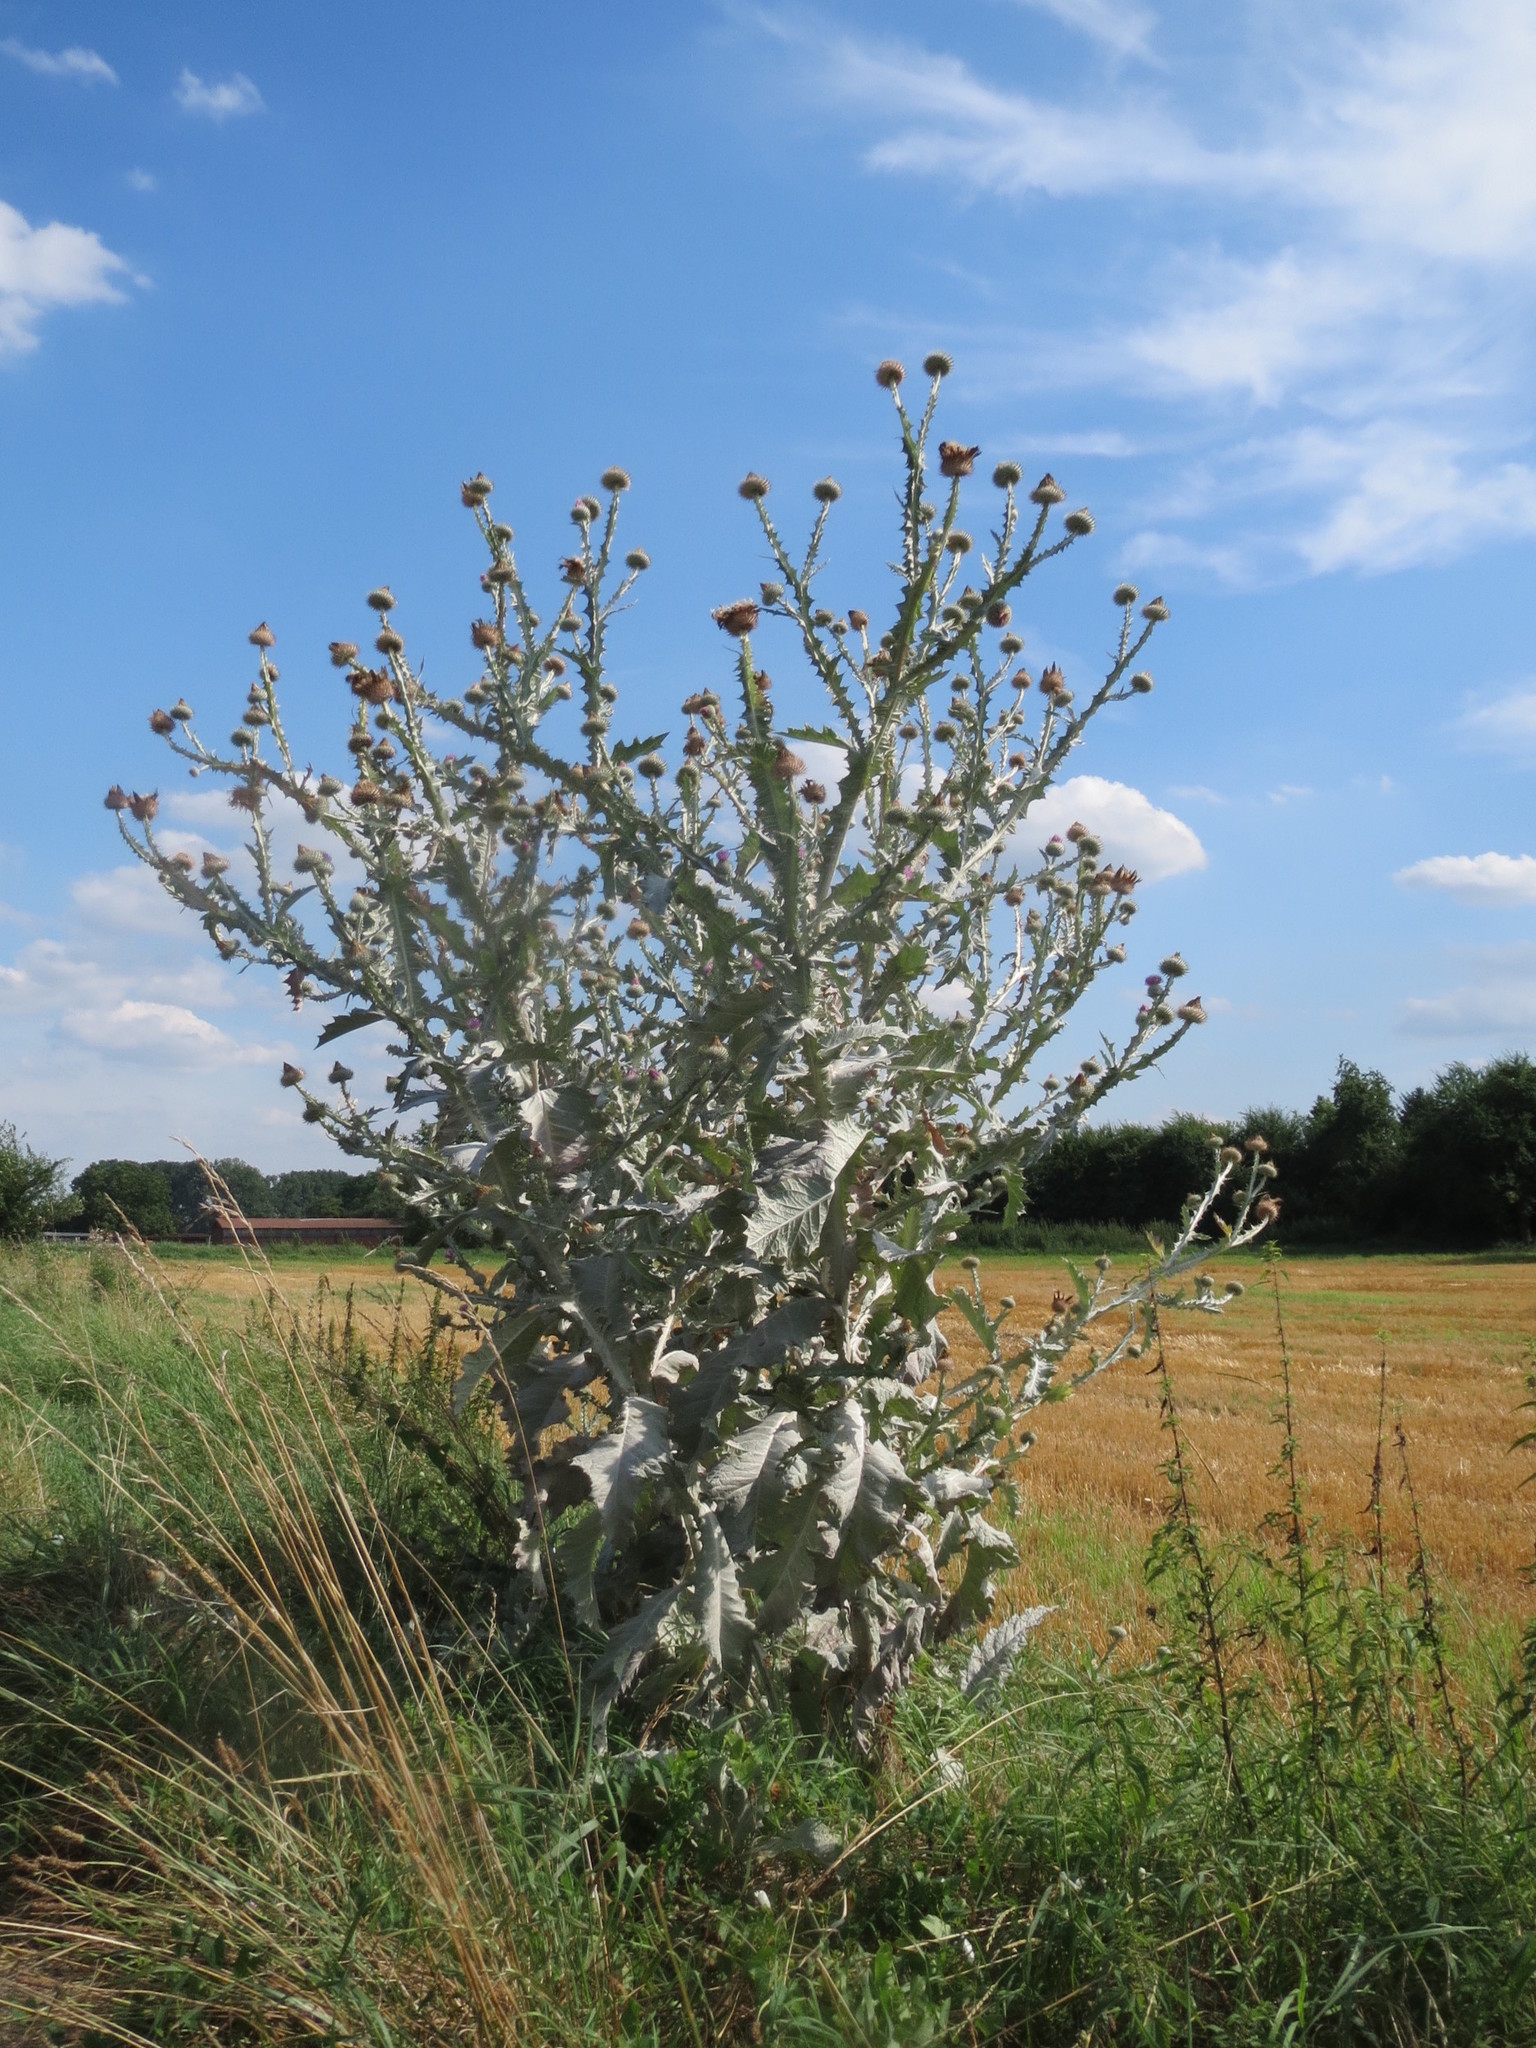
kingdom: Plantae
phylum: Tracheophyta
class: Magnoliopsida
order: Asterales
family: Asteraceae
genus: Onopordum
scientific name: Onopordum acanthium
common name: Scotch thistle
